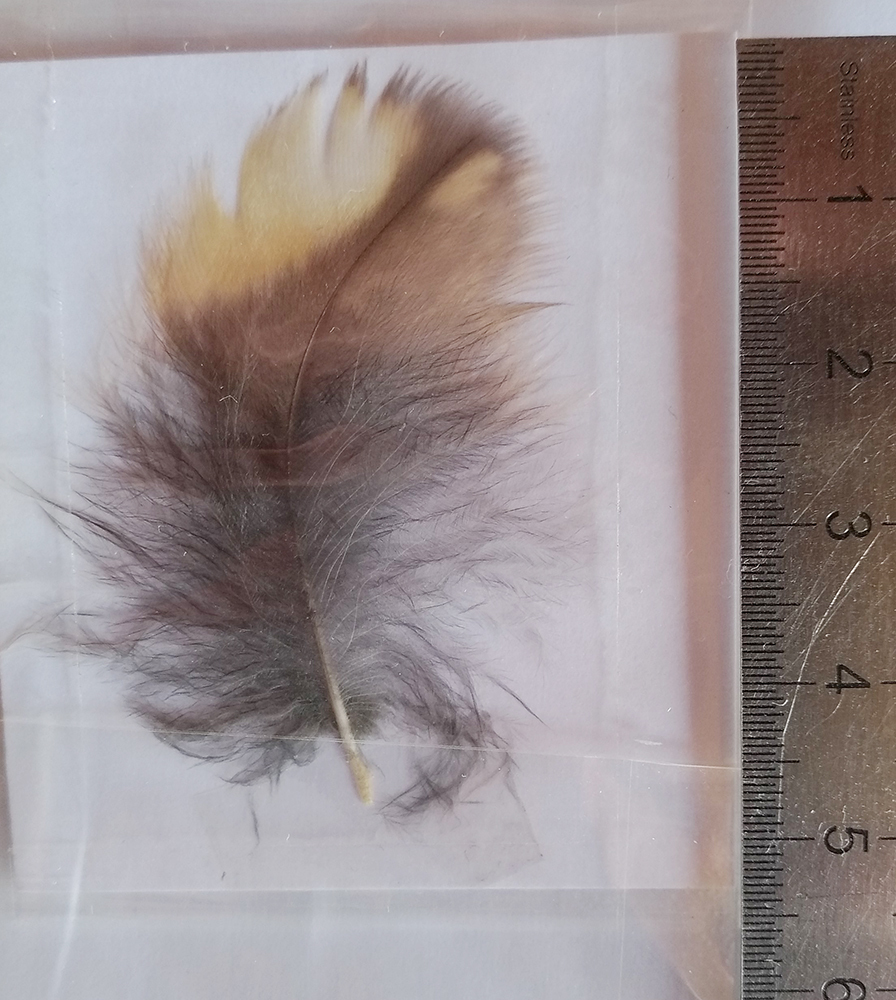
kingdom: Animalia
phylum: Chordata
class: Aves
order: Strigiformes
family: Strigidae
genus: Strix
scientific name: Strix aluco
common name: Tawny owl
